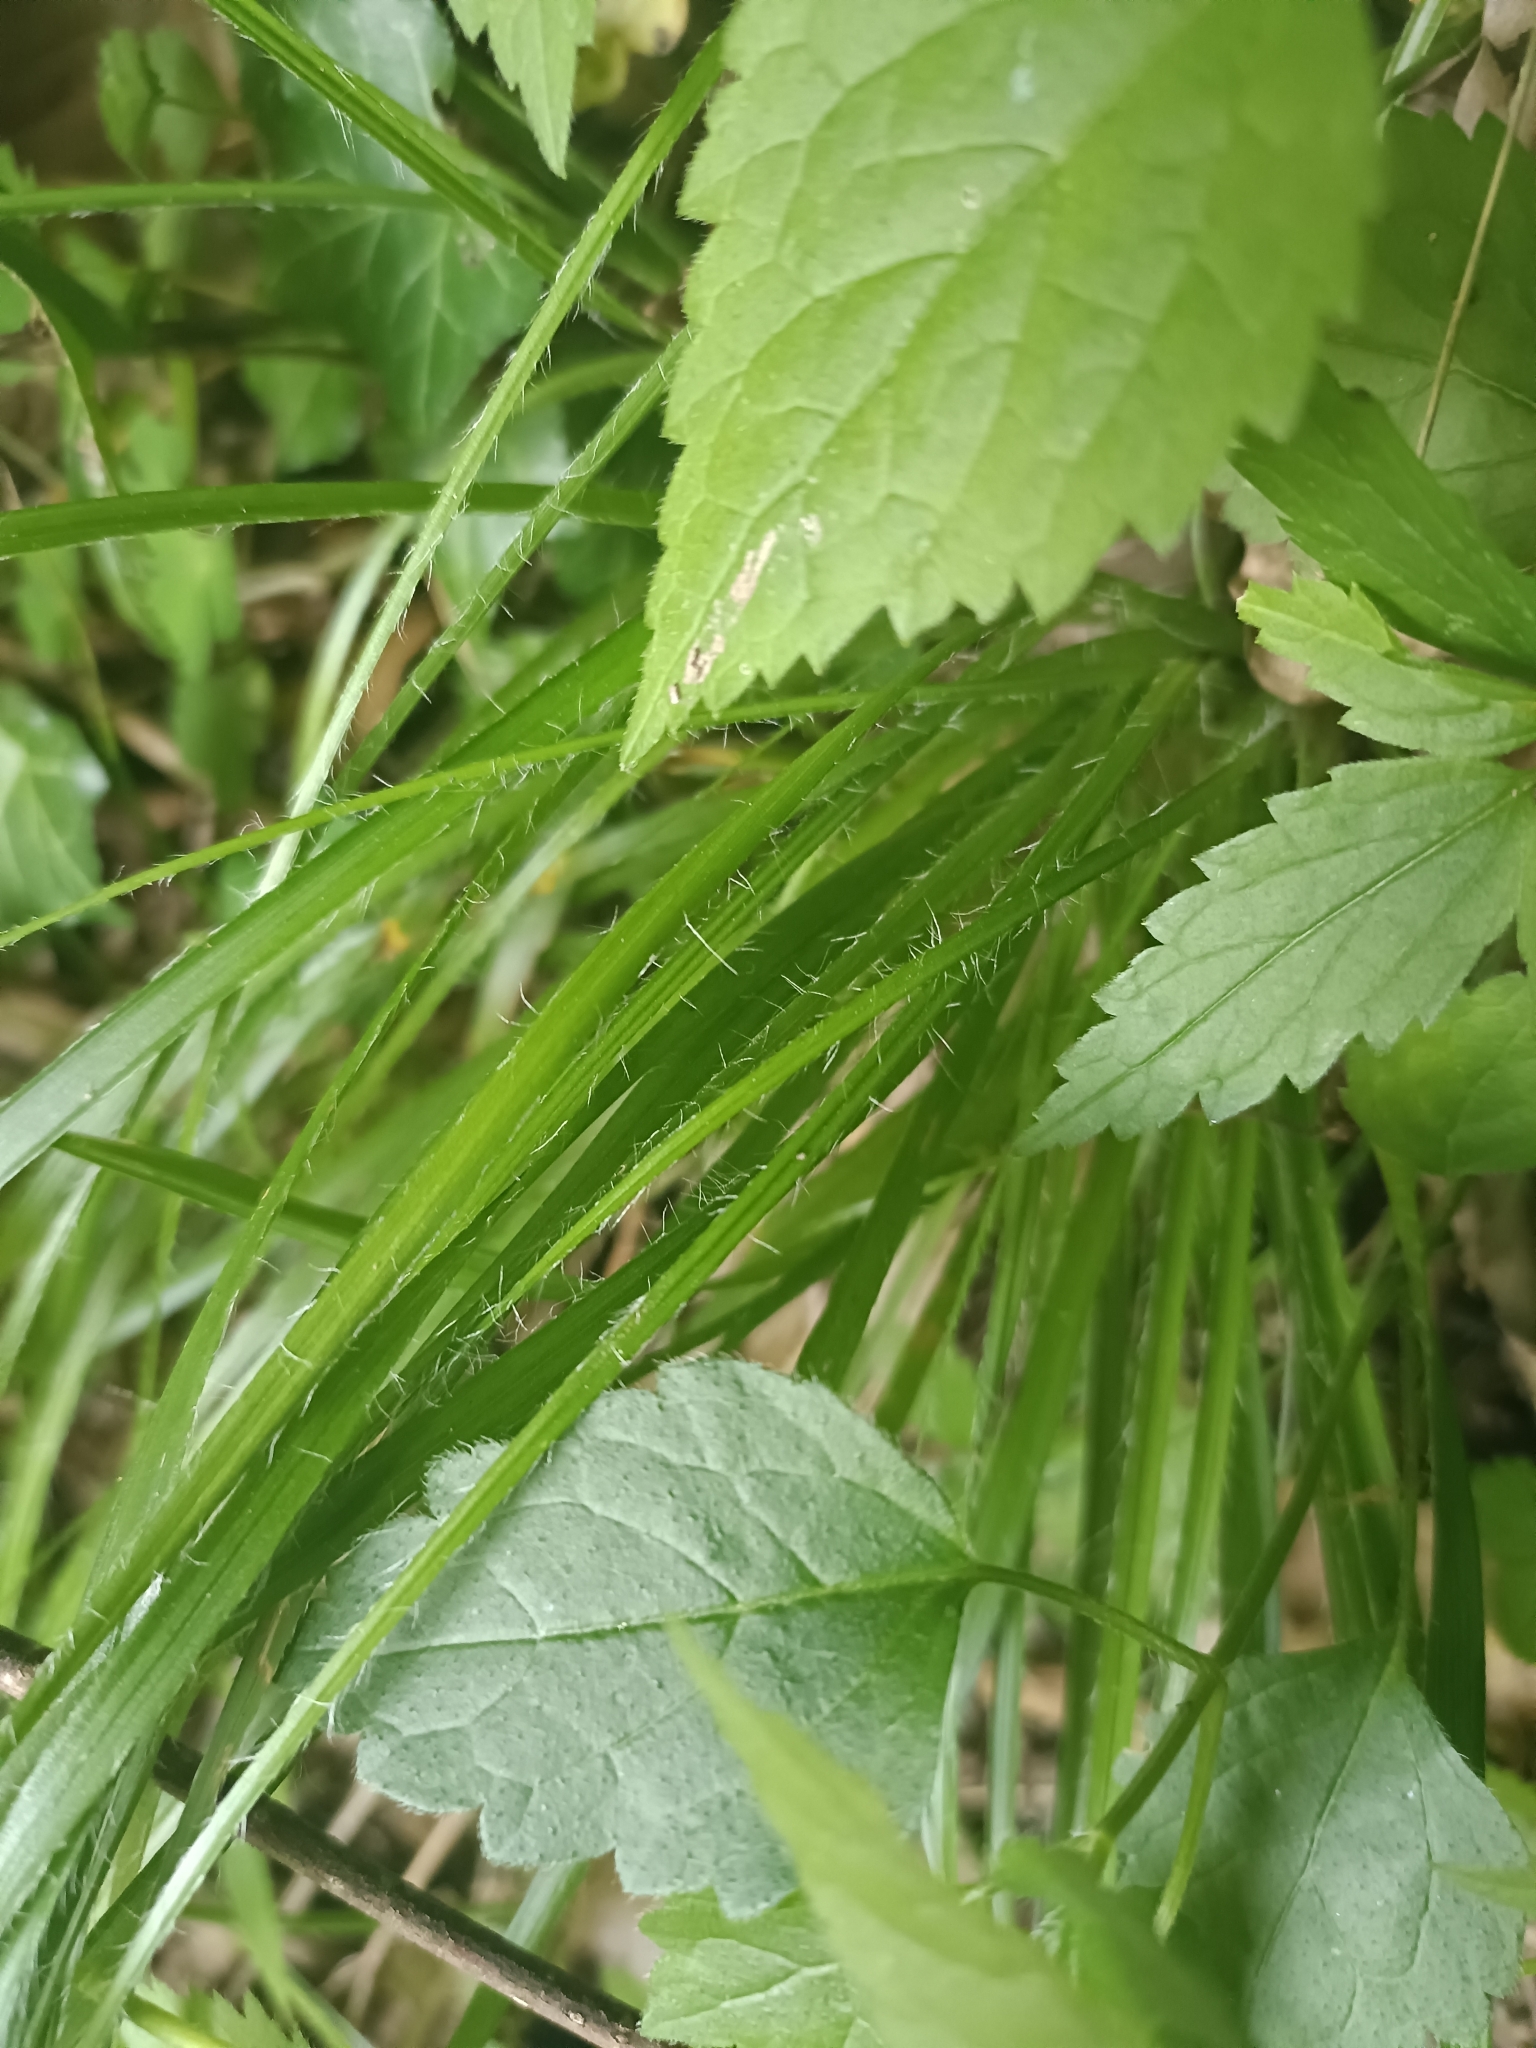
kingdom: Plantae
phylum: Tracheophyta
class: Liliopsida
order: Poales
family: Juncaceae
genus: Luzula
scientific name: Luzula luzuloides
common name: White wood-rush
